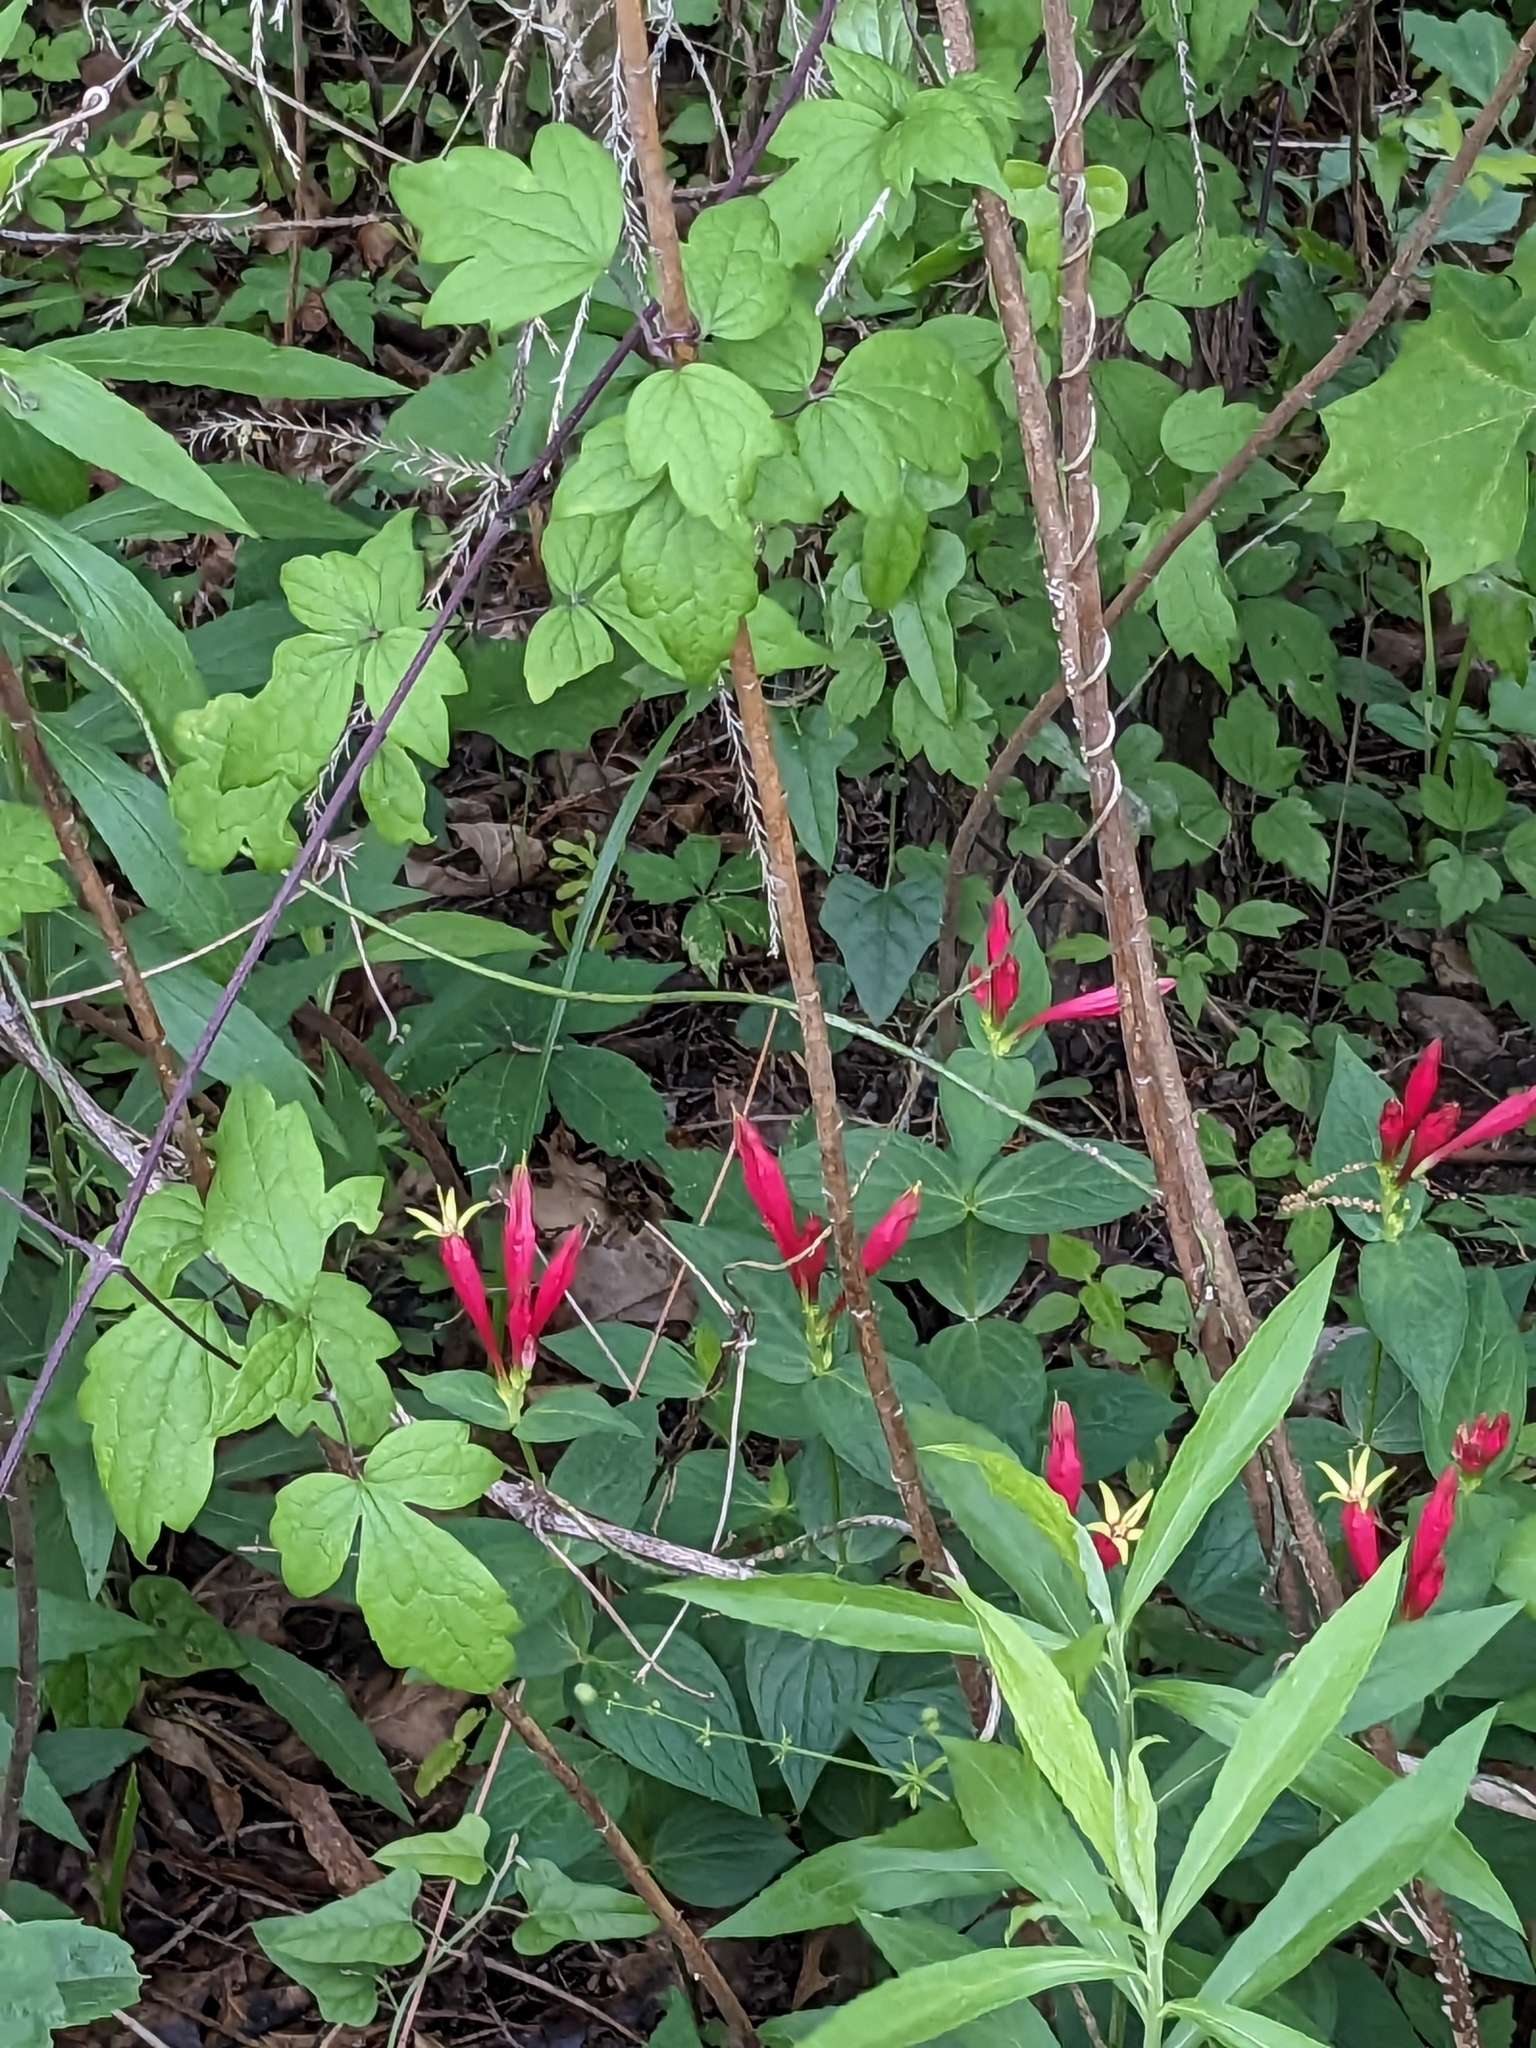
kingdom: Plantae
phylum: Tracheophyta
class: Magnoliopsida
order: Gentianales
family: Loganiaceae
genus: Spigelia
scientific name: Spigelia marilandica
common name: Indian-pink
